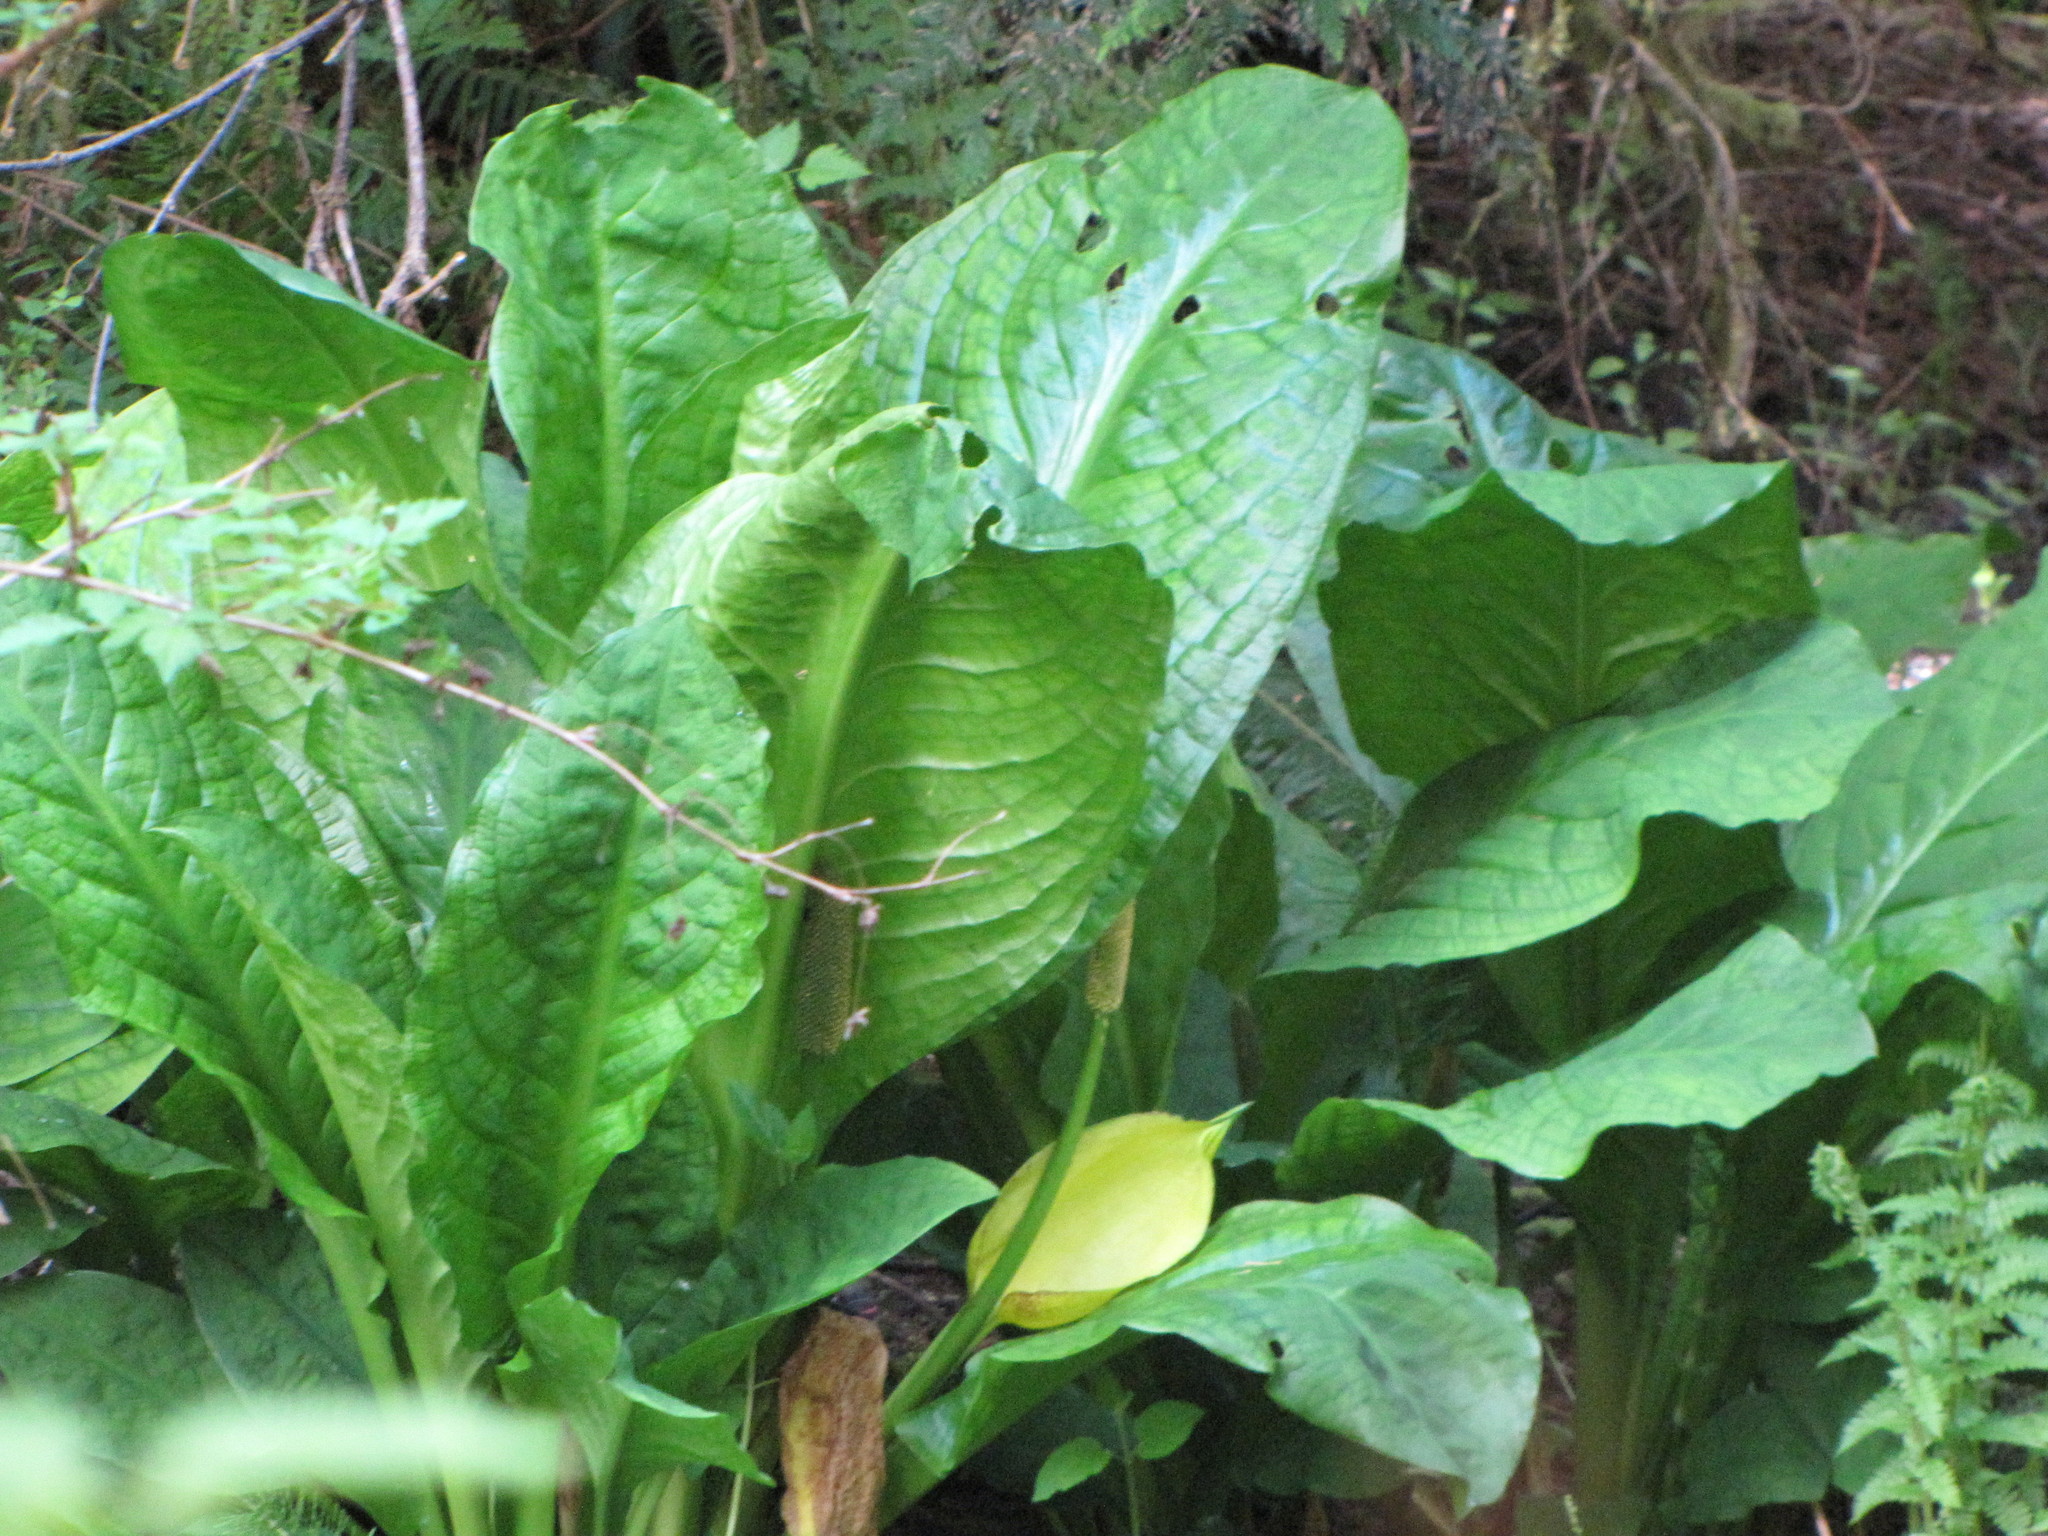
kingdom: Plantae
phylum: Tracheophyta
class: Liliopsida
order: Alismatales
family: Araceae
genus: Lysichiton
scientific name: Lysichiton americanus
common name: American skunk cabbage
